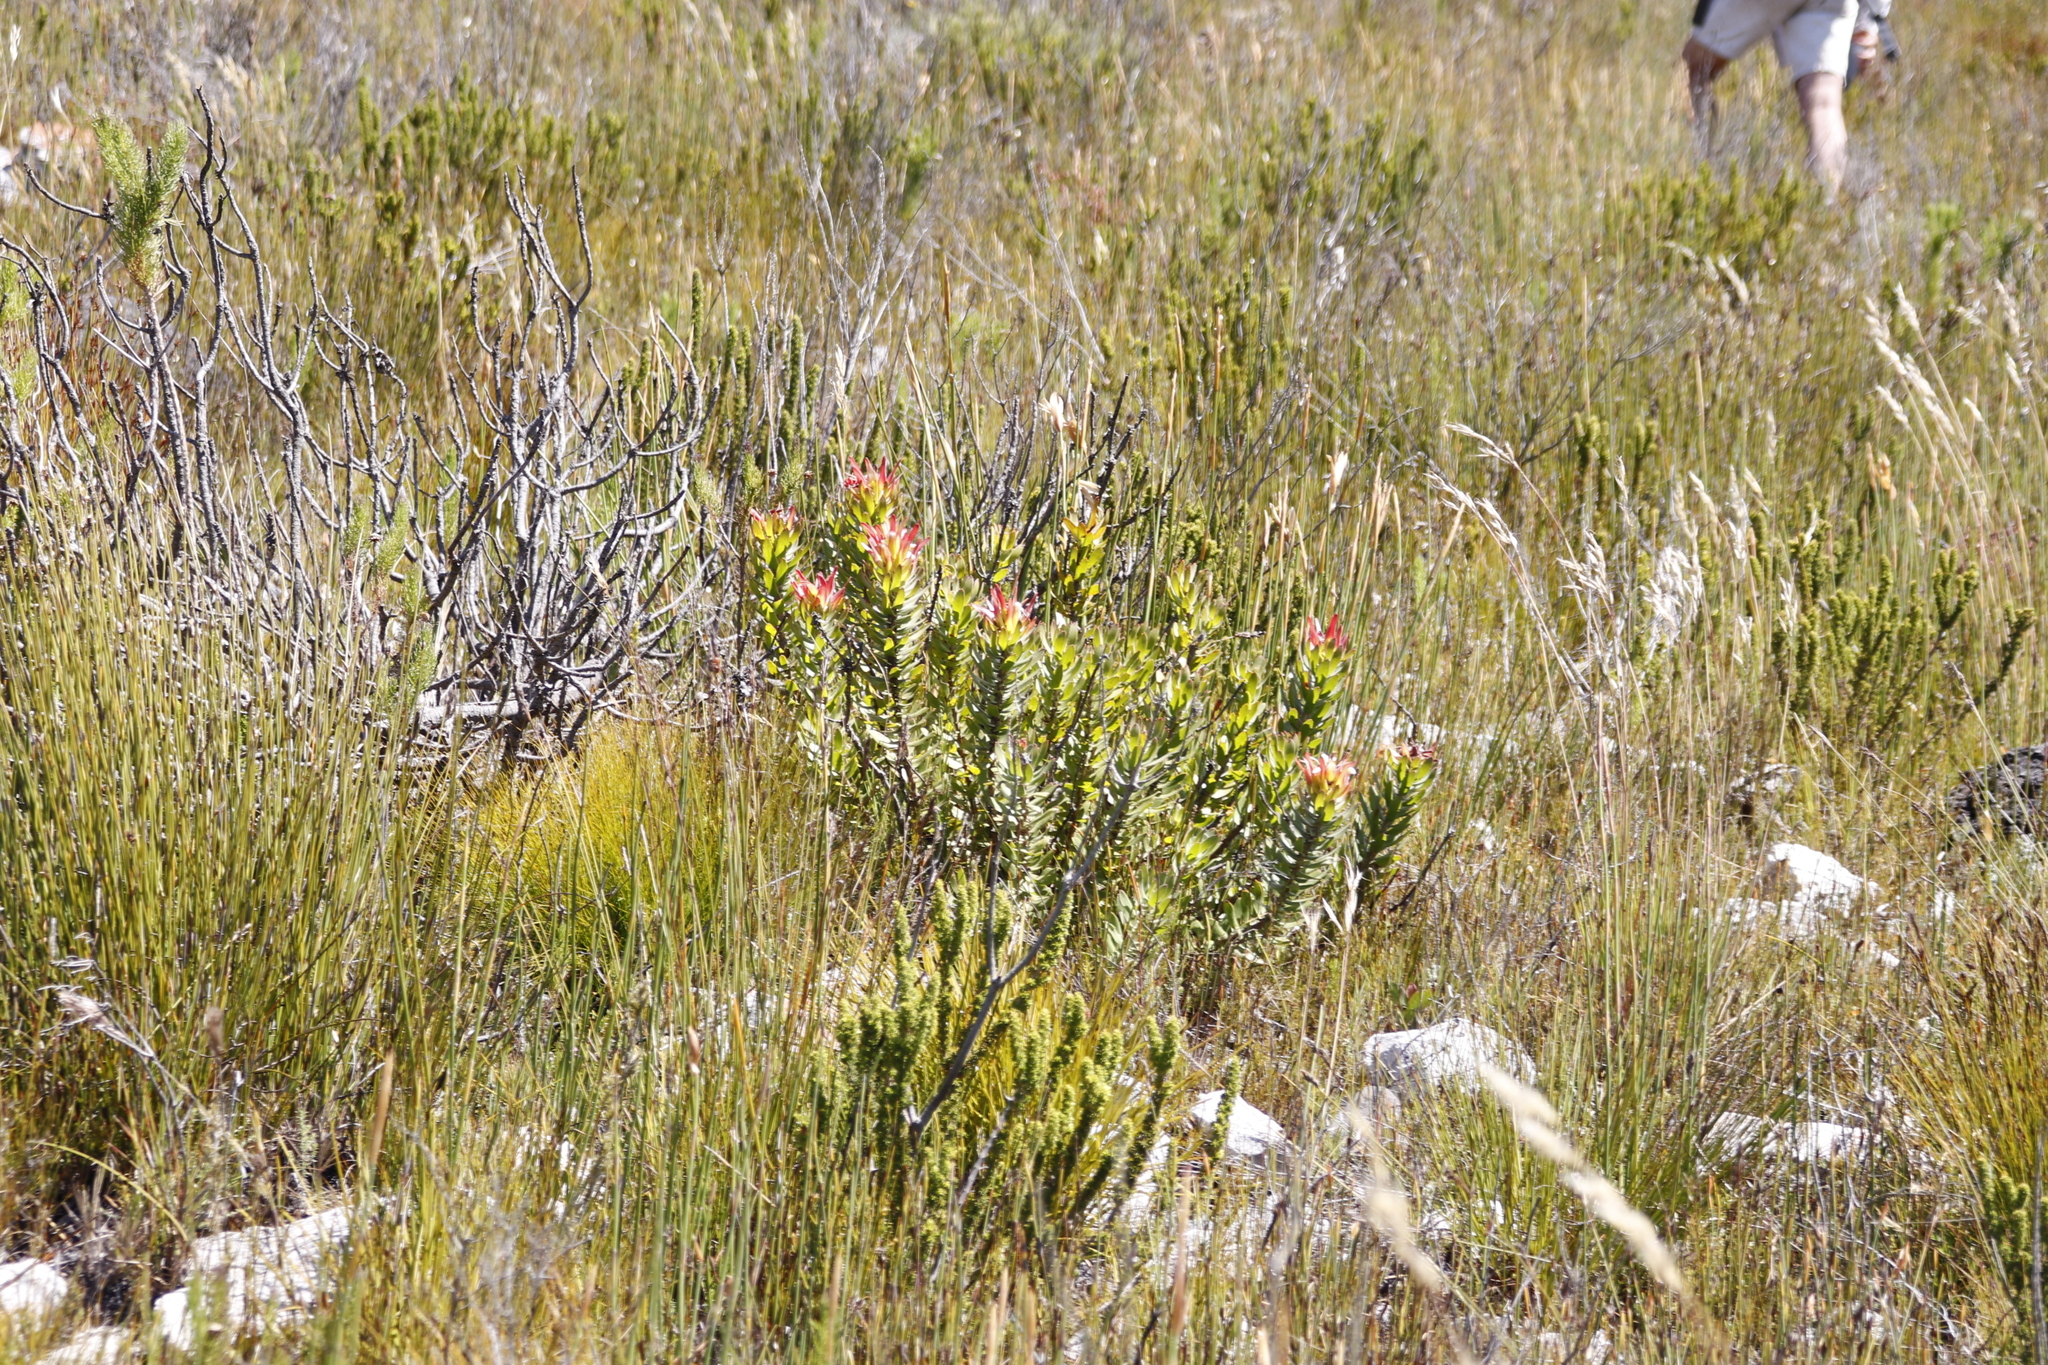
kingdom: Plantae
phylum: Tracheophyta
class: Magnoliopsida
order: Proteales
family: Proteaceae
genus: Mimetes
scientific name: Mimetes cucullatus
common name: Common pagoda
